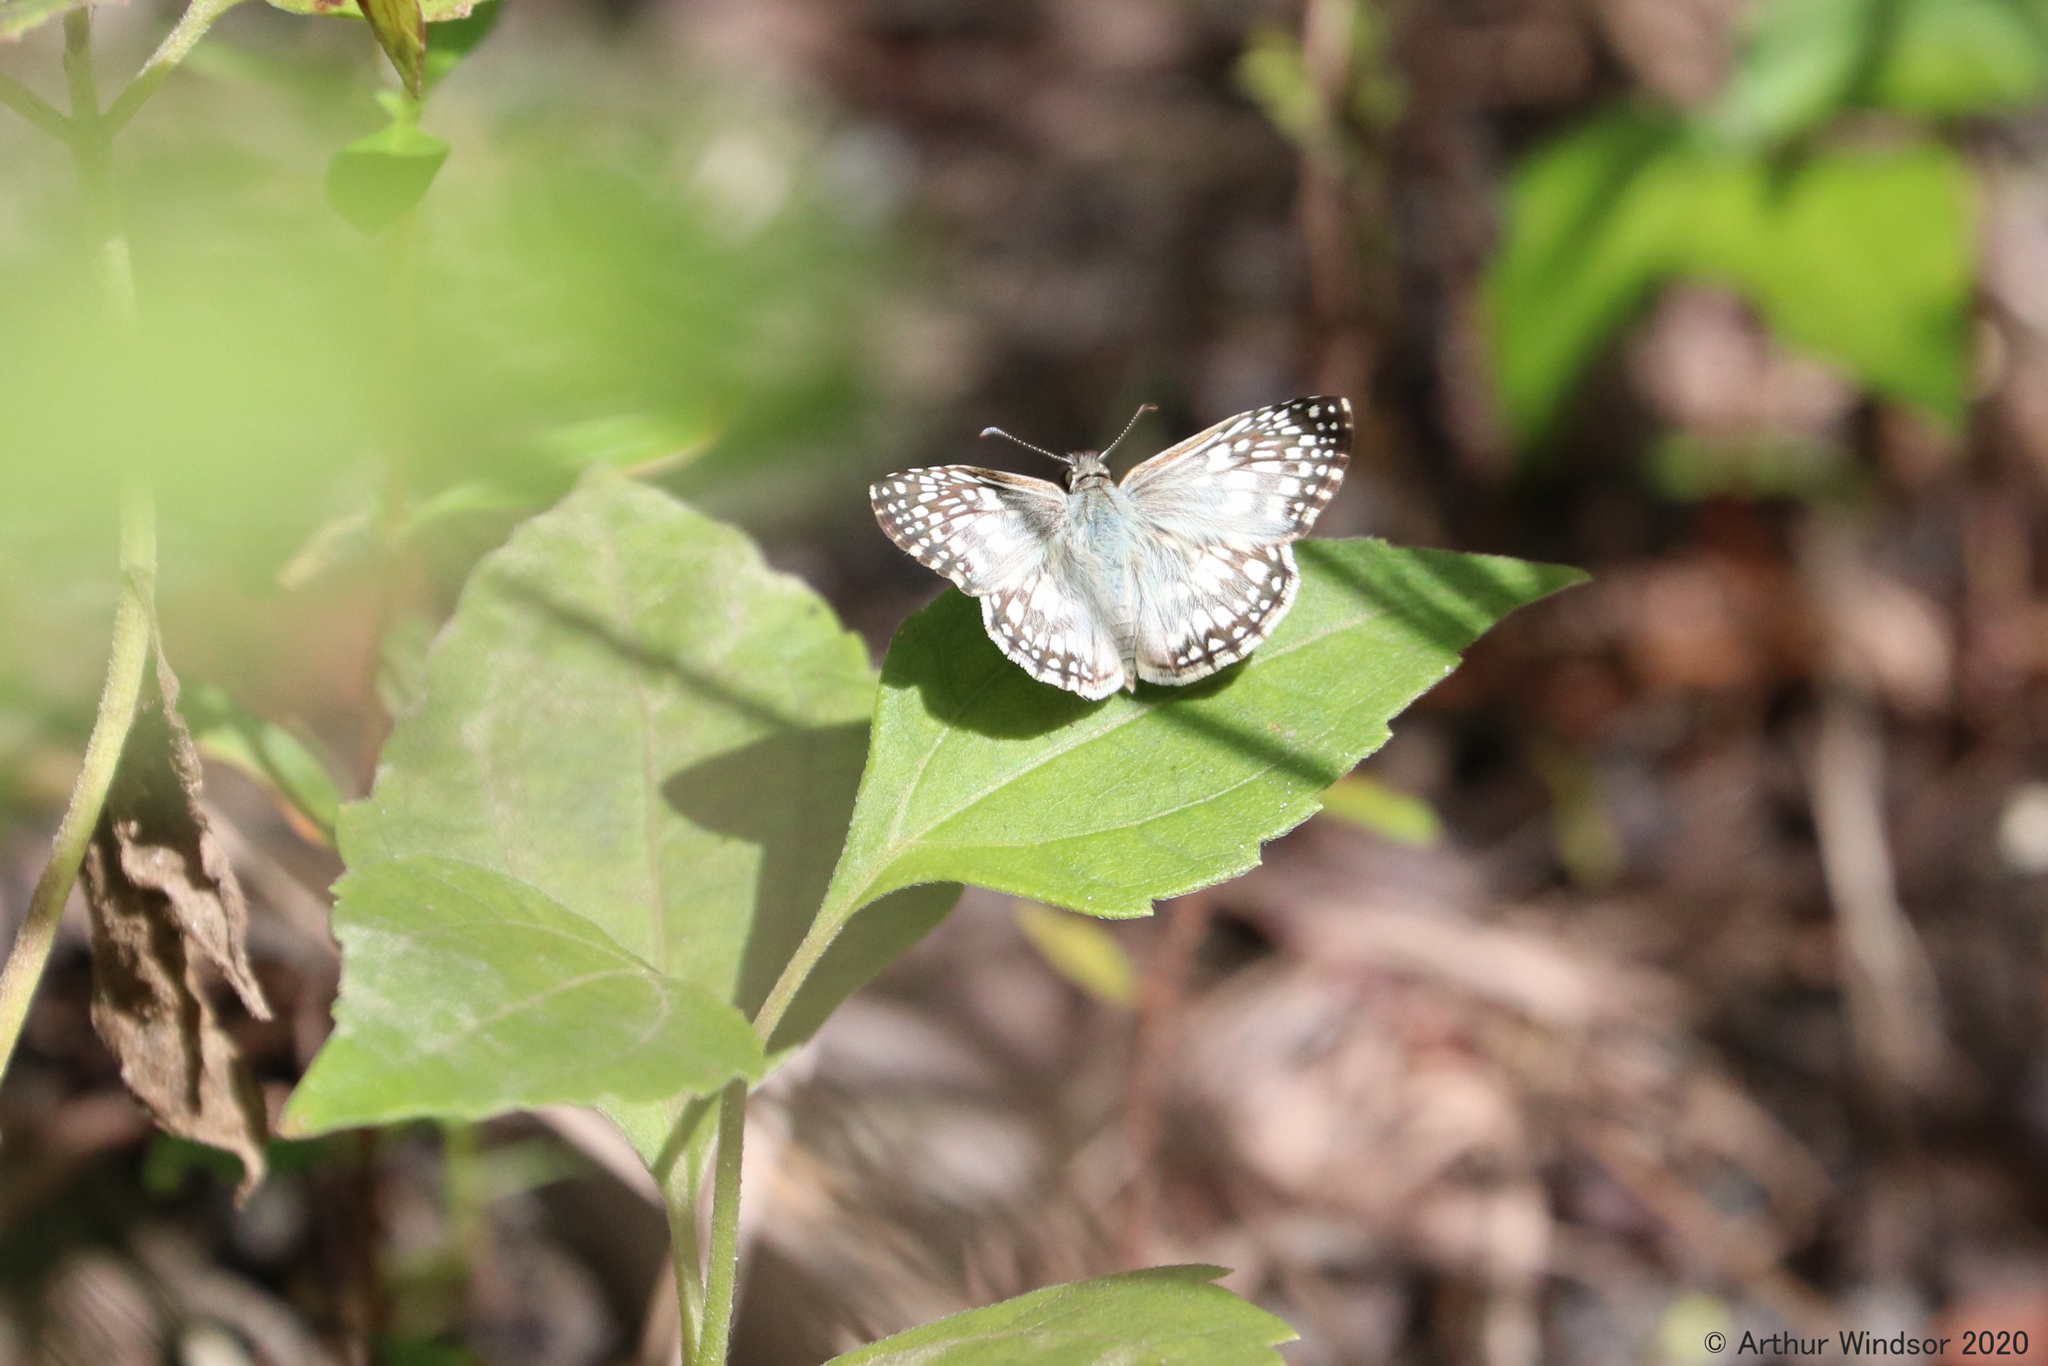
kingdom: Animalia
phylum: Arthropoda
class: Insecta
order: Lepidoptera
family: Hesperiidae
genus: Pyrgus
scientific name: Pyrgus oileus
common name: Tropical checkered-skipper
